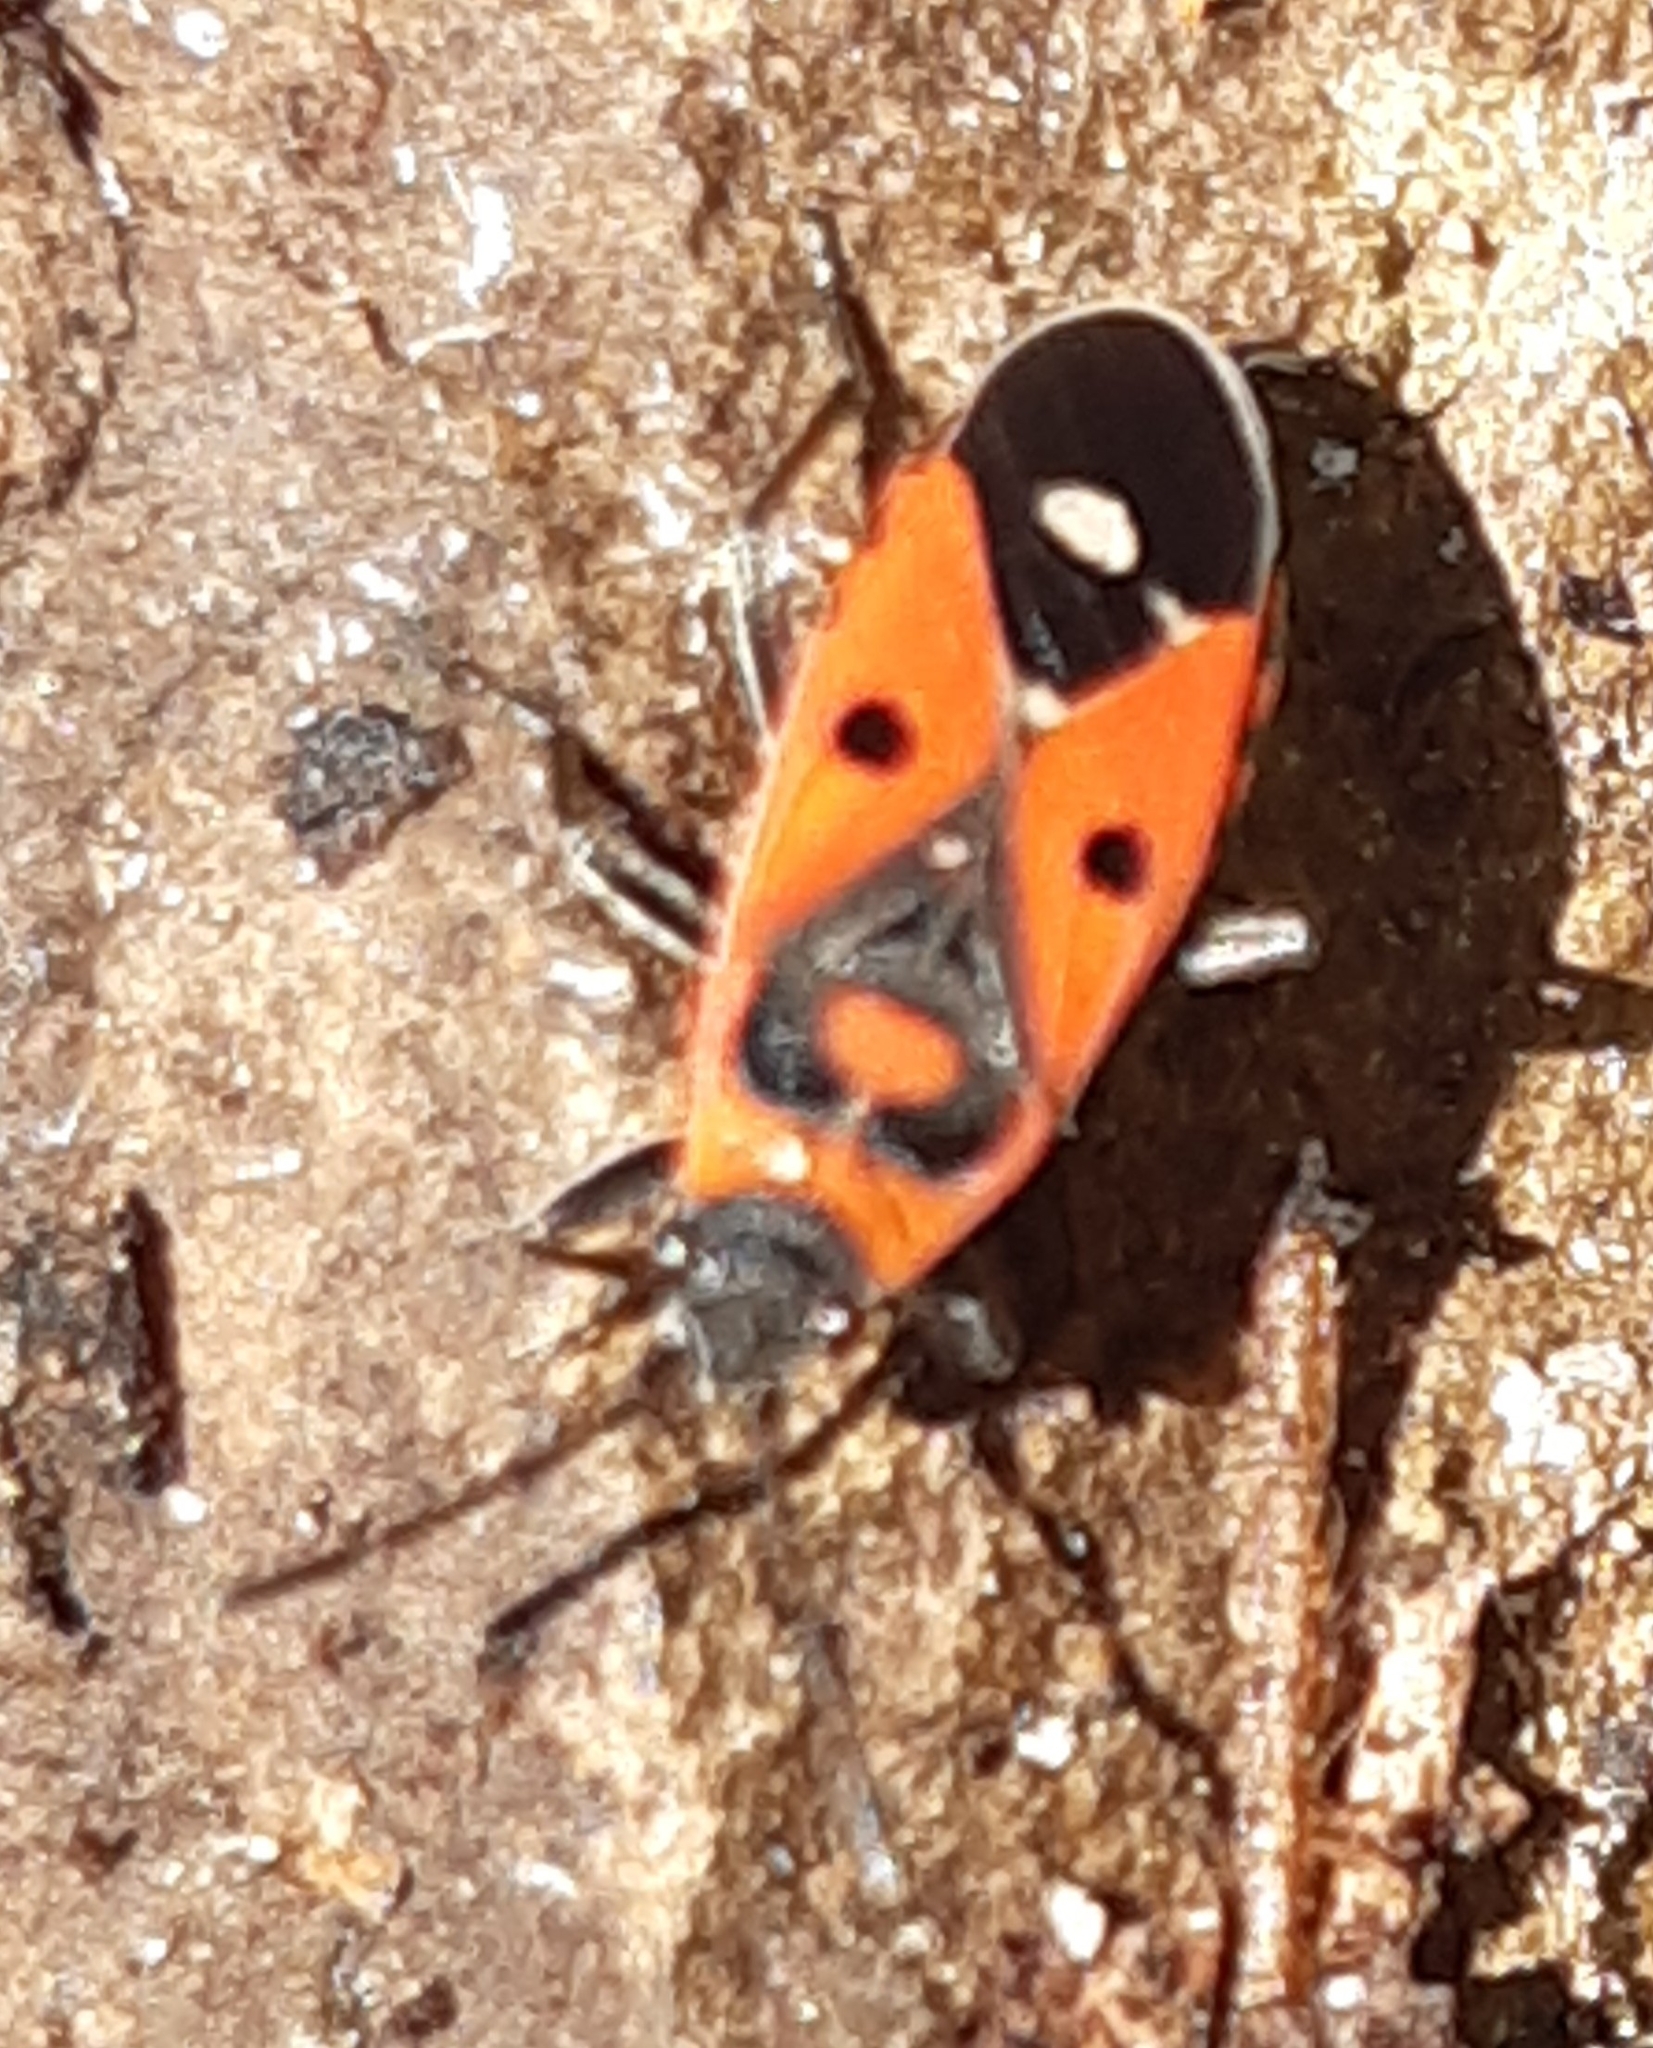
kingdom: Animalia
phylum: Arthropoda
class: Insecta
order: Hemiptera
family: Lygaeidae
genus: Melanocoryphus
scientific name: Melanocoryphus albomaculatus
